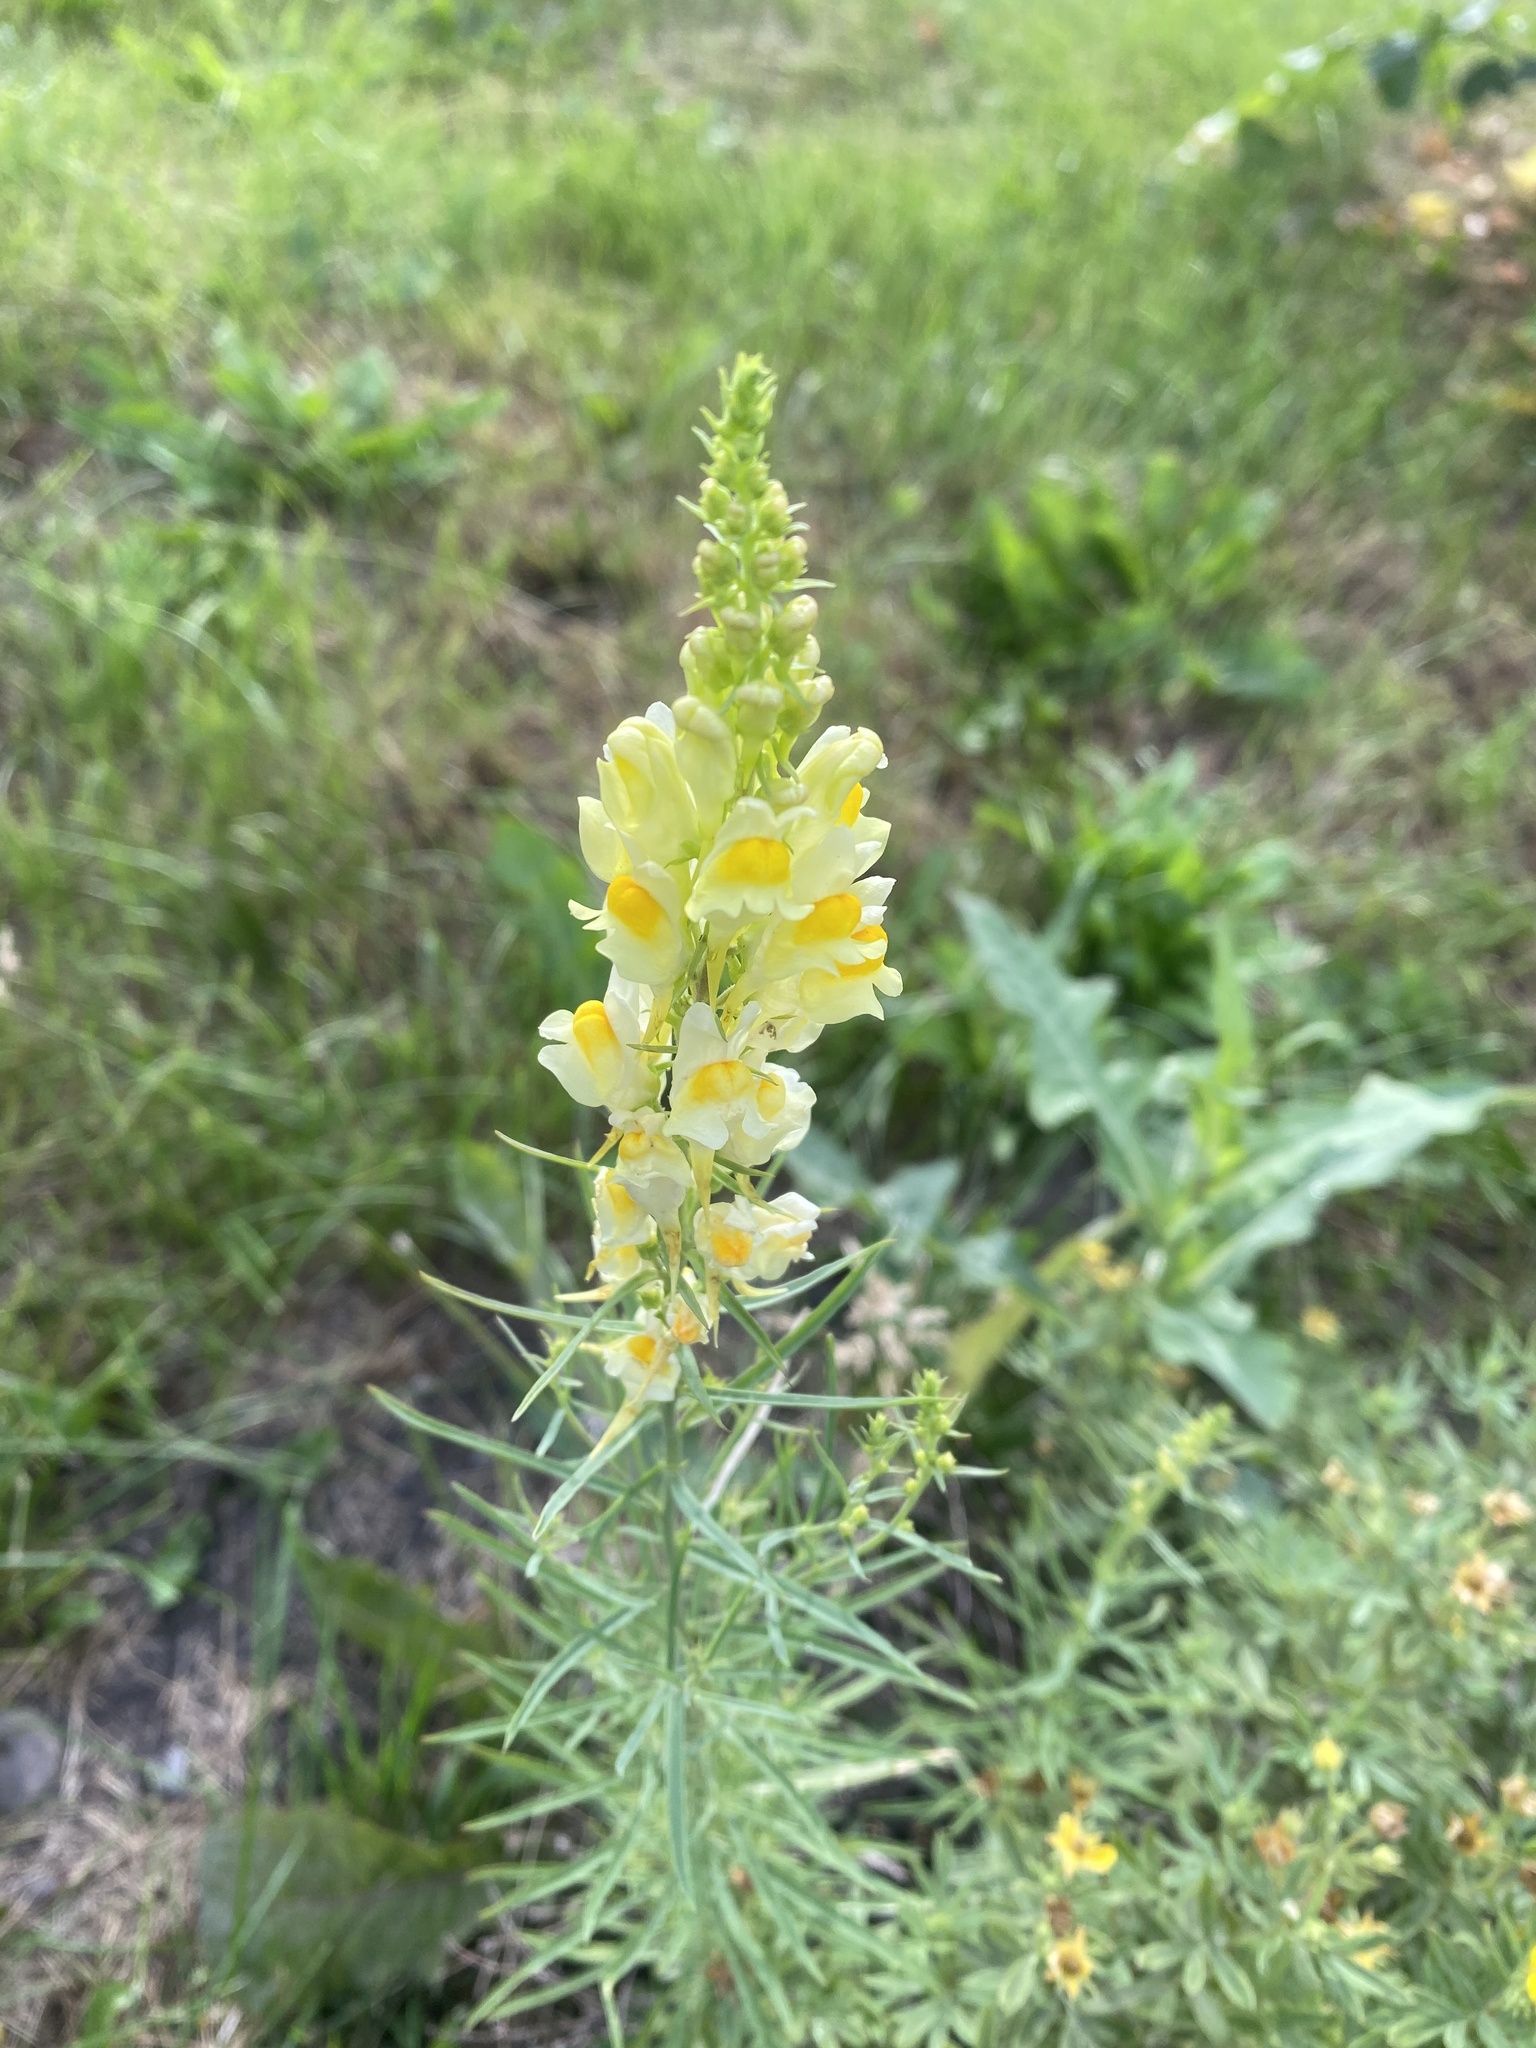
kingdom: Plantae
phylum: Tracheophyta
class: Magnoliopsida
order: Lamiales
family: Plantaginaceae
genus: Linaria
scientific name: Linaria vulgaris
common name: Butter and eggs
